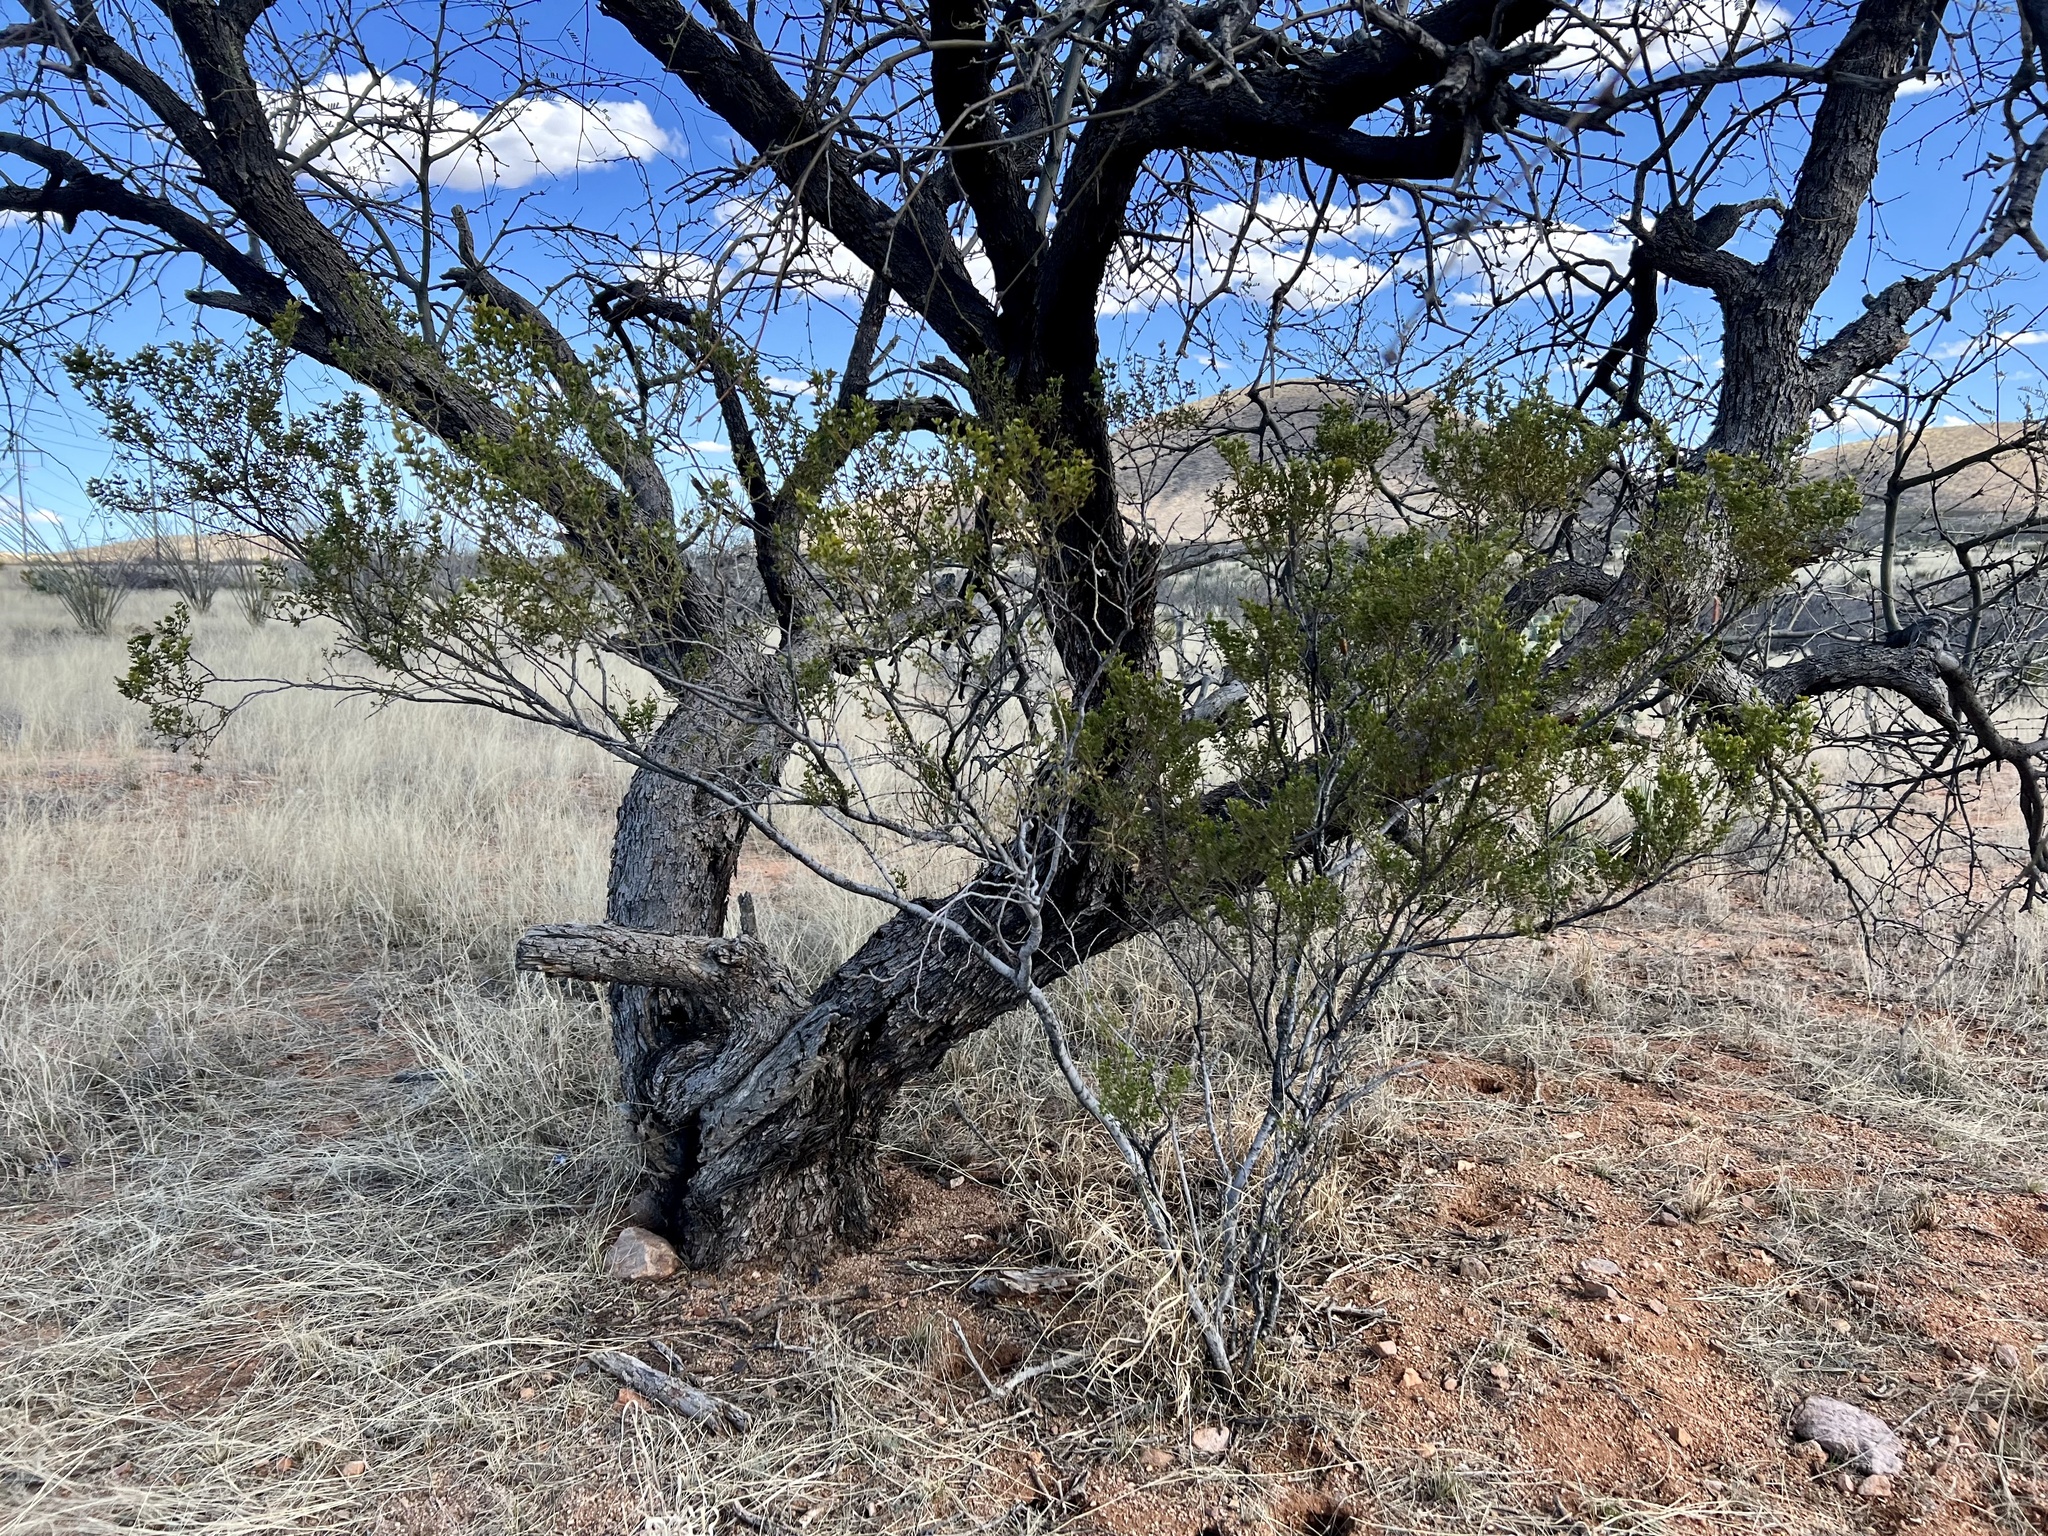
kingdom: Plantae
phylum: Tracheophyta
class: Magnoliopsida
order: Zygophyllales
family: Zygophyllaceae
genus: Larrea
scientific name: Larrea tridentata
